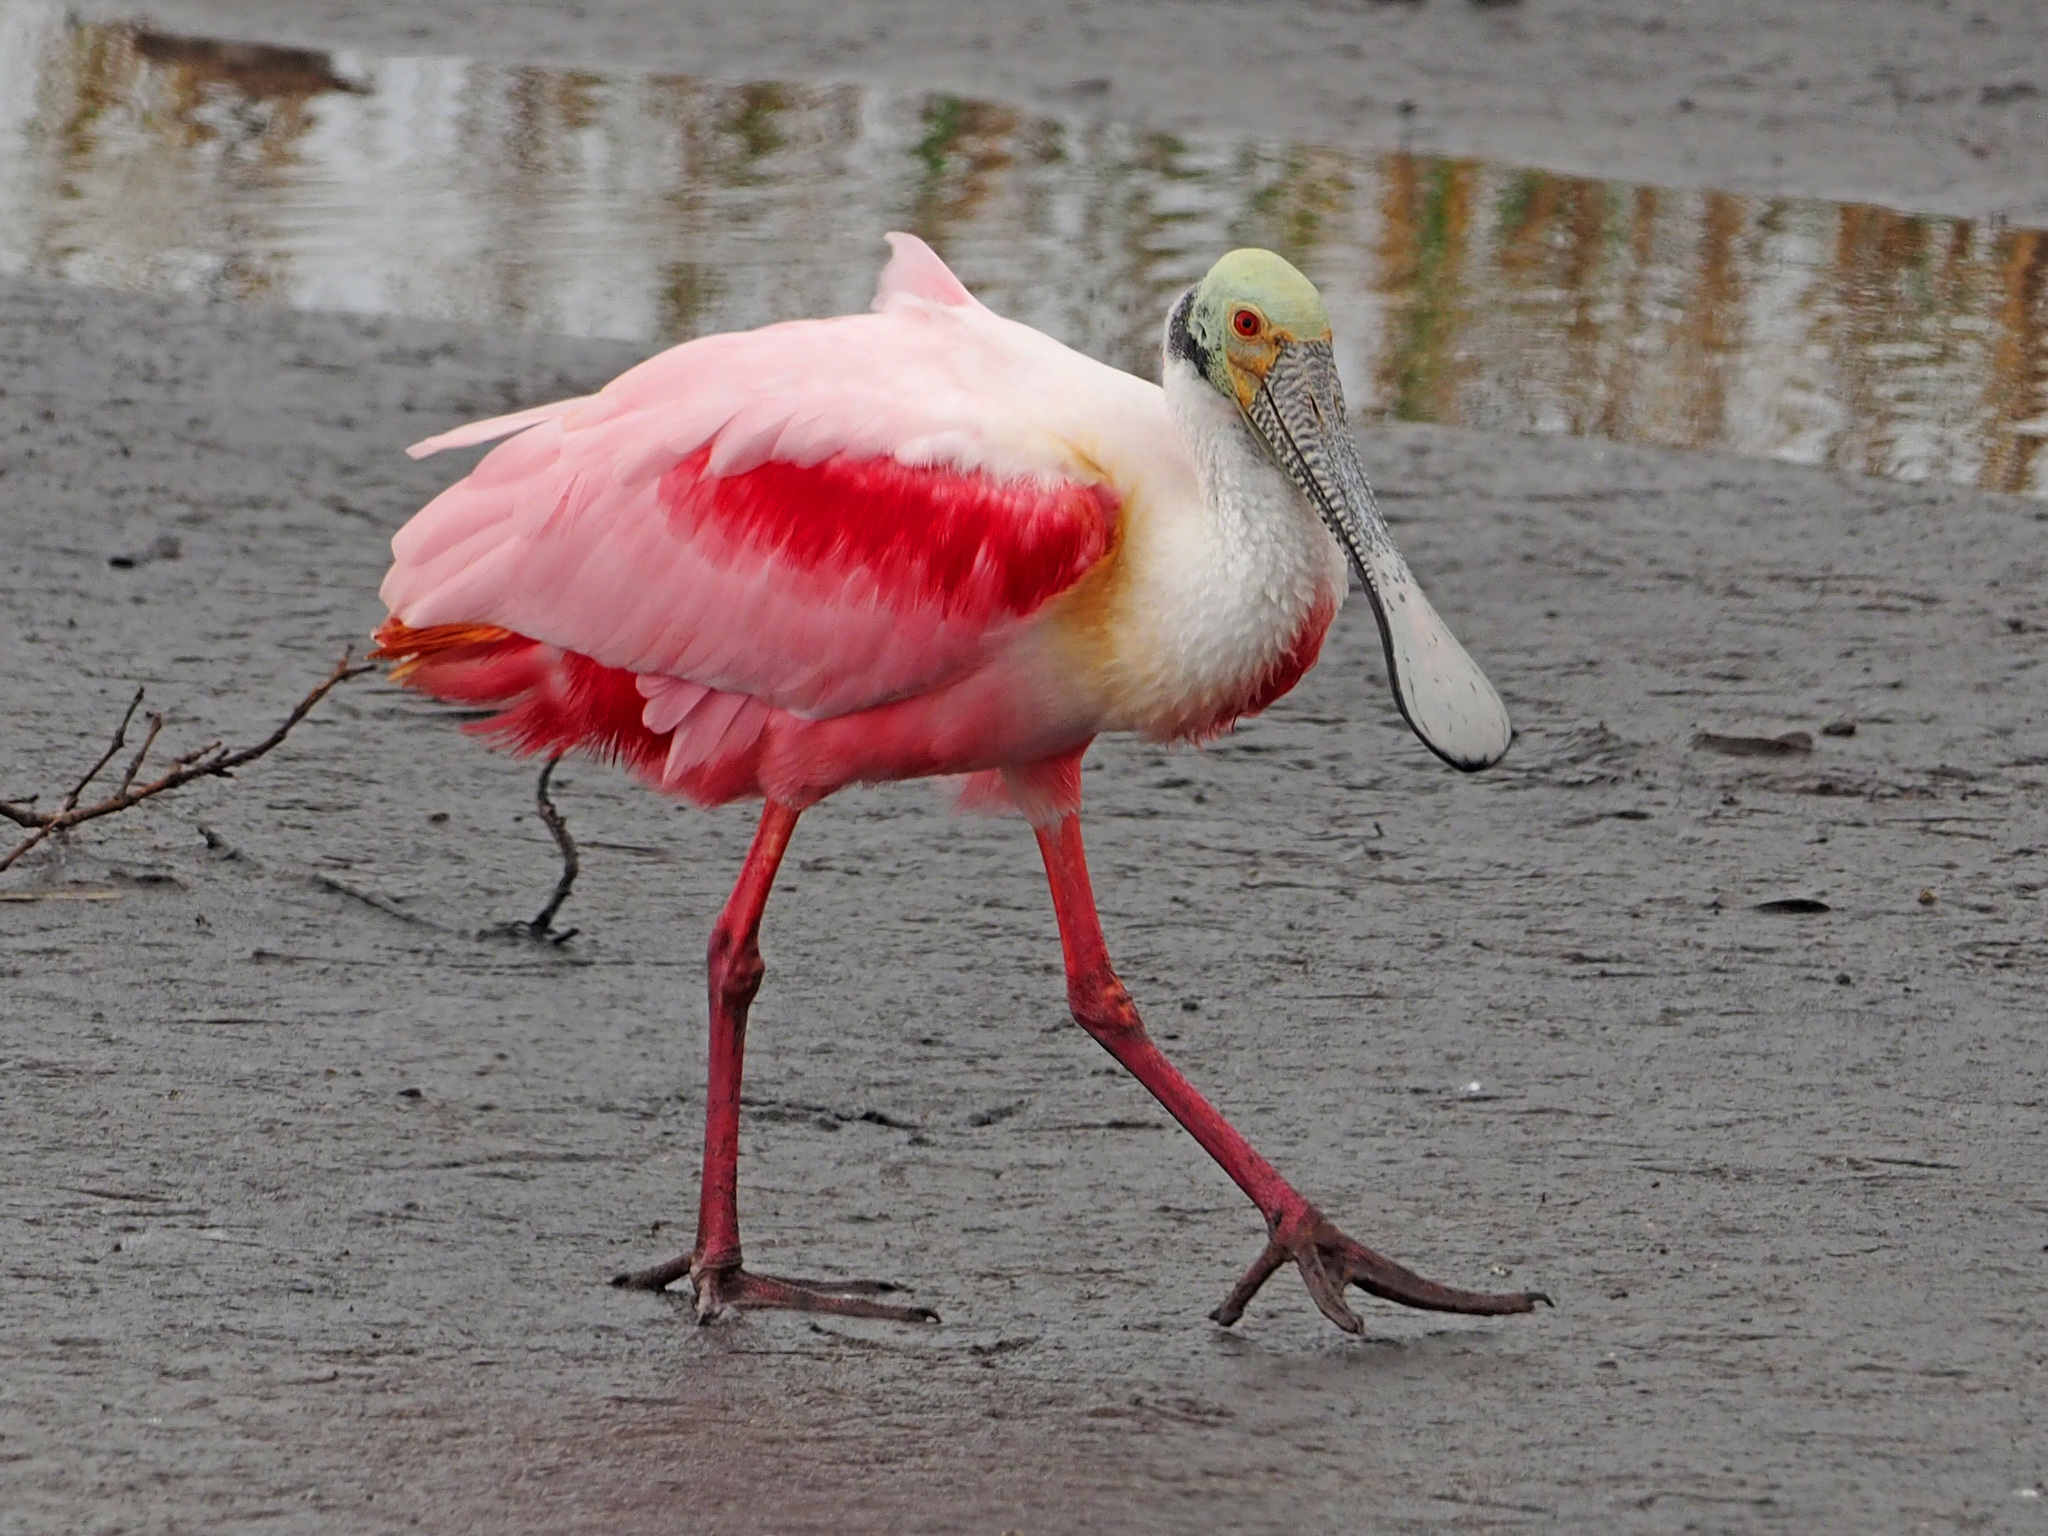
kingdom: Animalia
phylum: Chordata
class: Aves
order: Pelecaniformes
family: Threskiornithidae
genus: Platalea
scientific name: Platalea ajaja
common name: Roseate spoonbill
